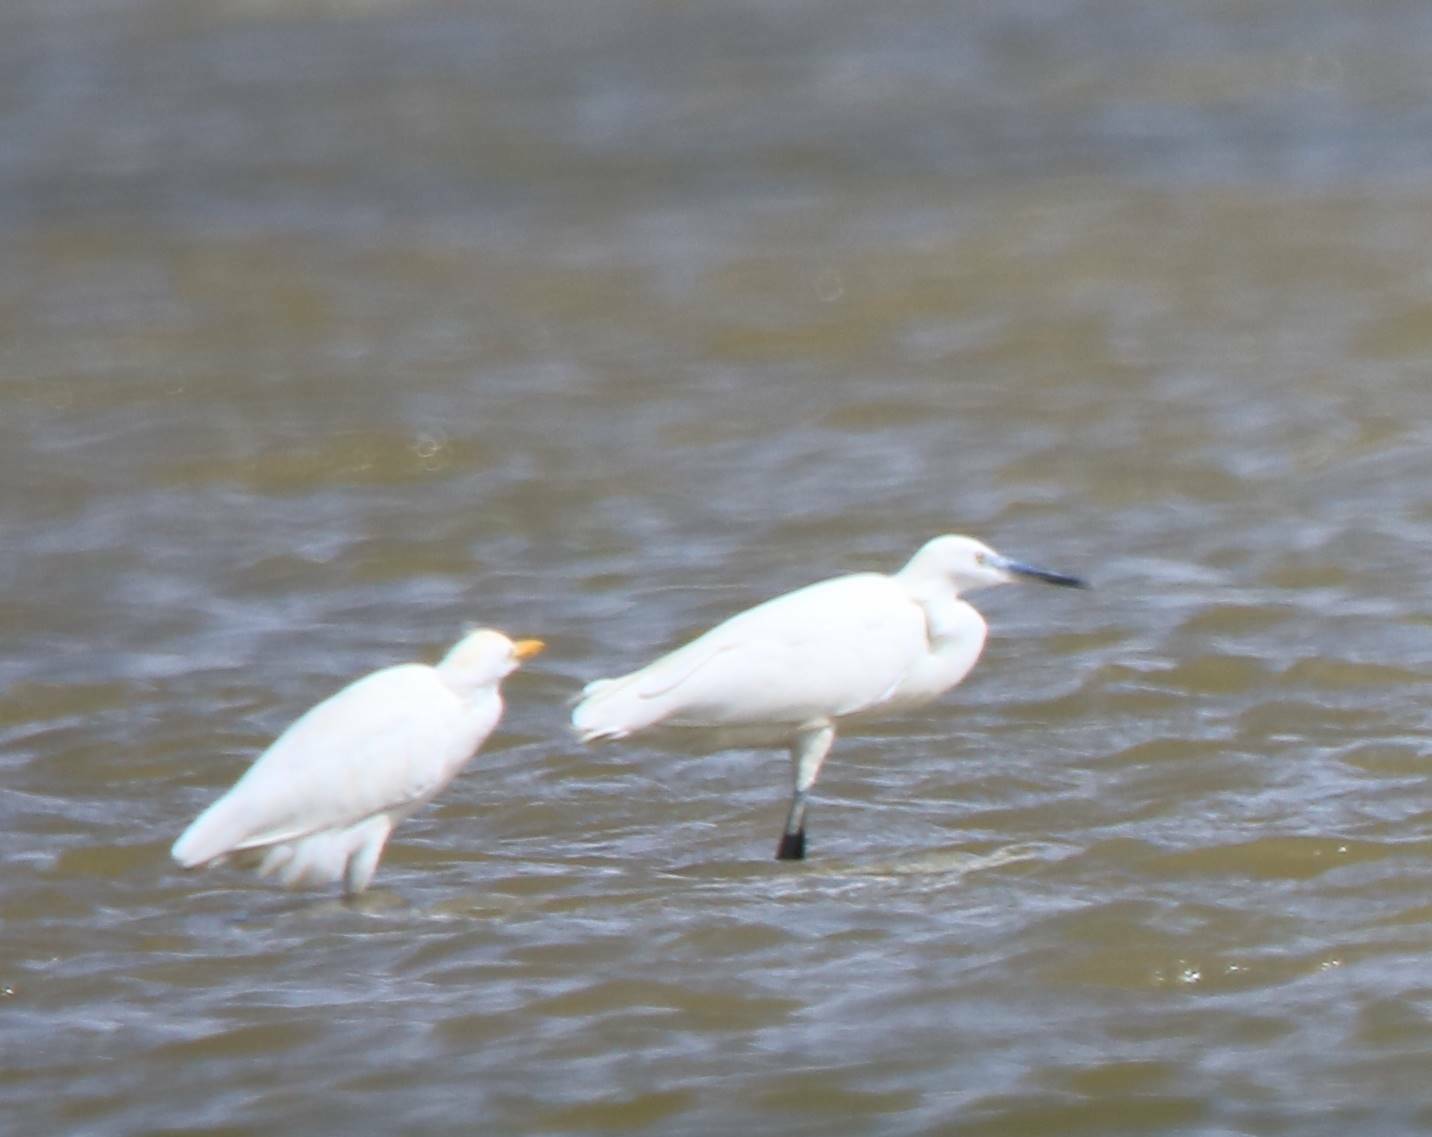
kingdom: Animalia
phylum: Chordata
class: Aves
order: Pelecaniformes
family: Ardeidae
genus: Egretta
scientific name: Egretta garzetta
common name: Little egret
